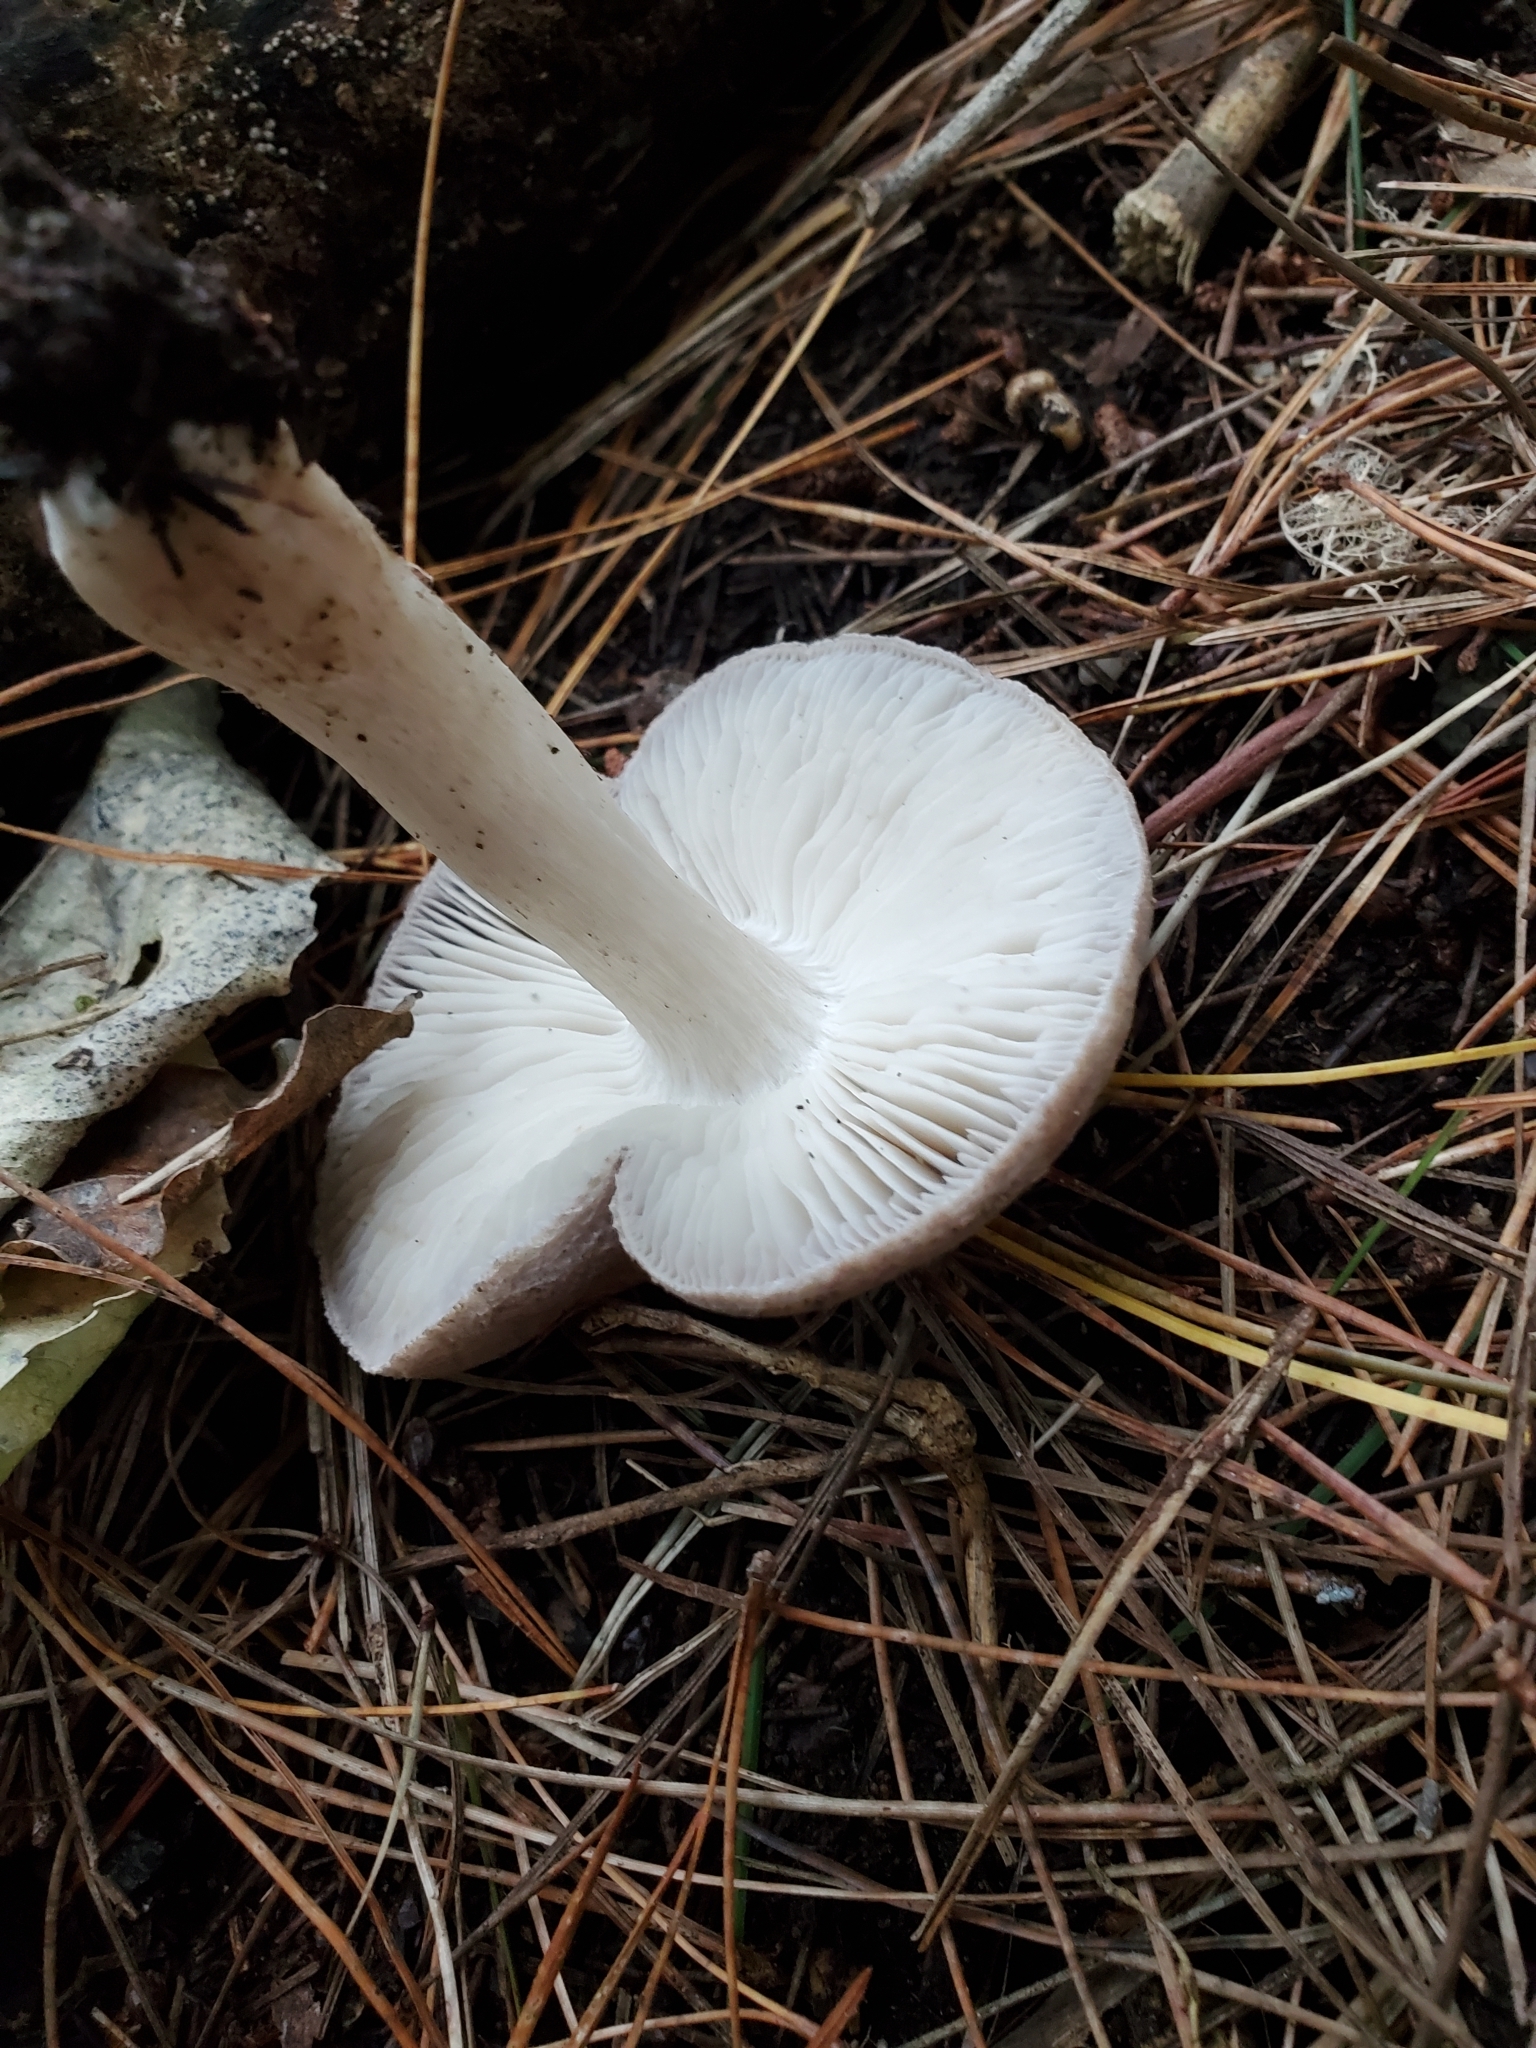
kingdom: Fungi
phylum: Basidiomycota
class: Agaricomycetes
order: Agaricales
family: Tricholomataceae
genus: Tricholoma
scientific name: Tricholoma terreum
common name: Grey knight
